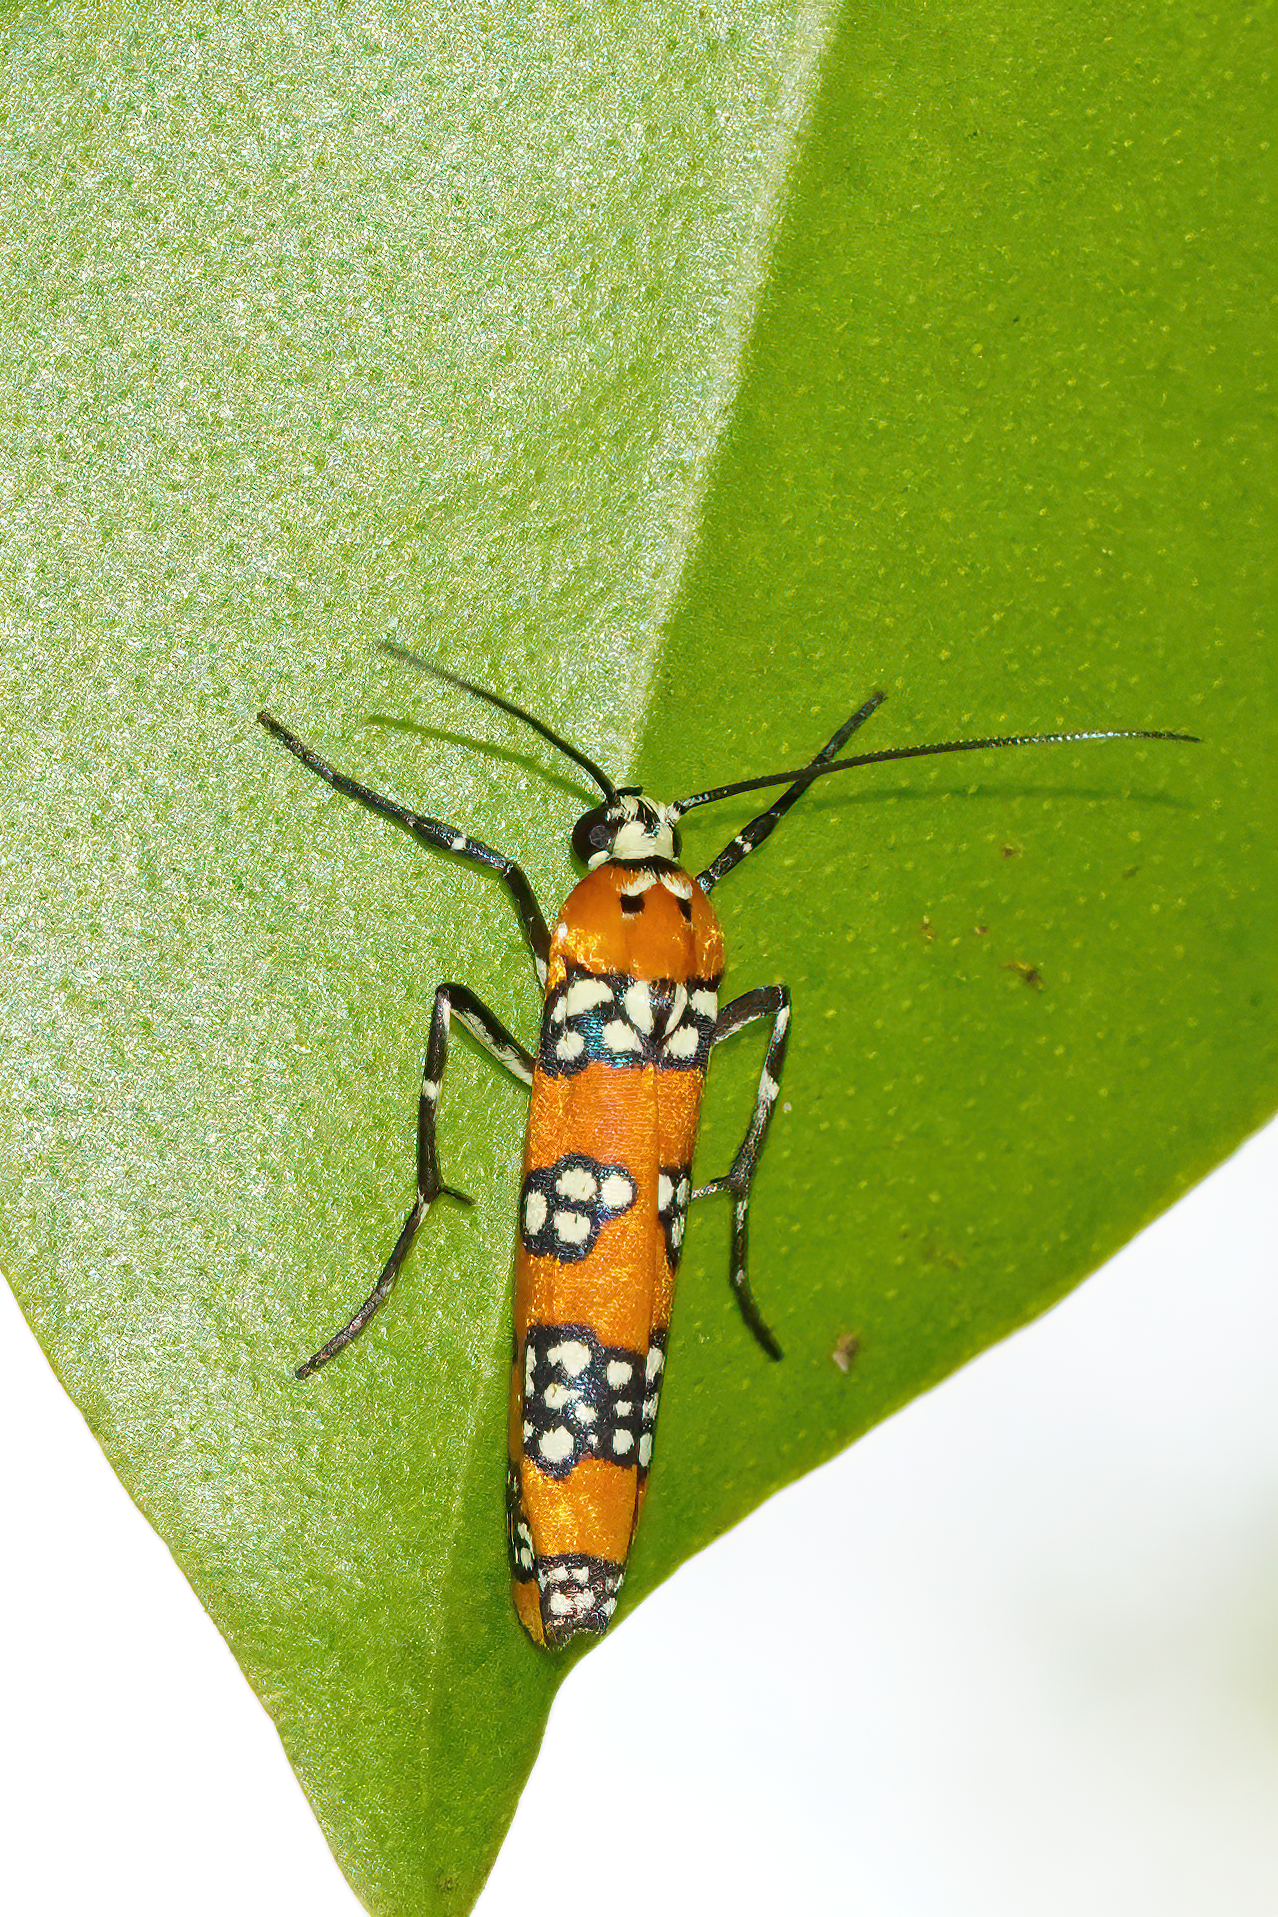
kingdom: Animalia
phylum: Arthropoda
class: Insecta
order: Lepidoptera
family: Attevidae
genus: Atteva
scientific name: Atteva punctella
